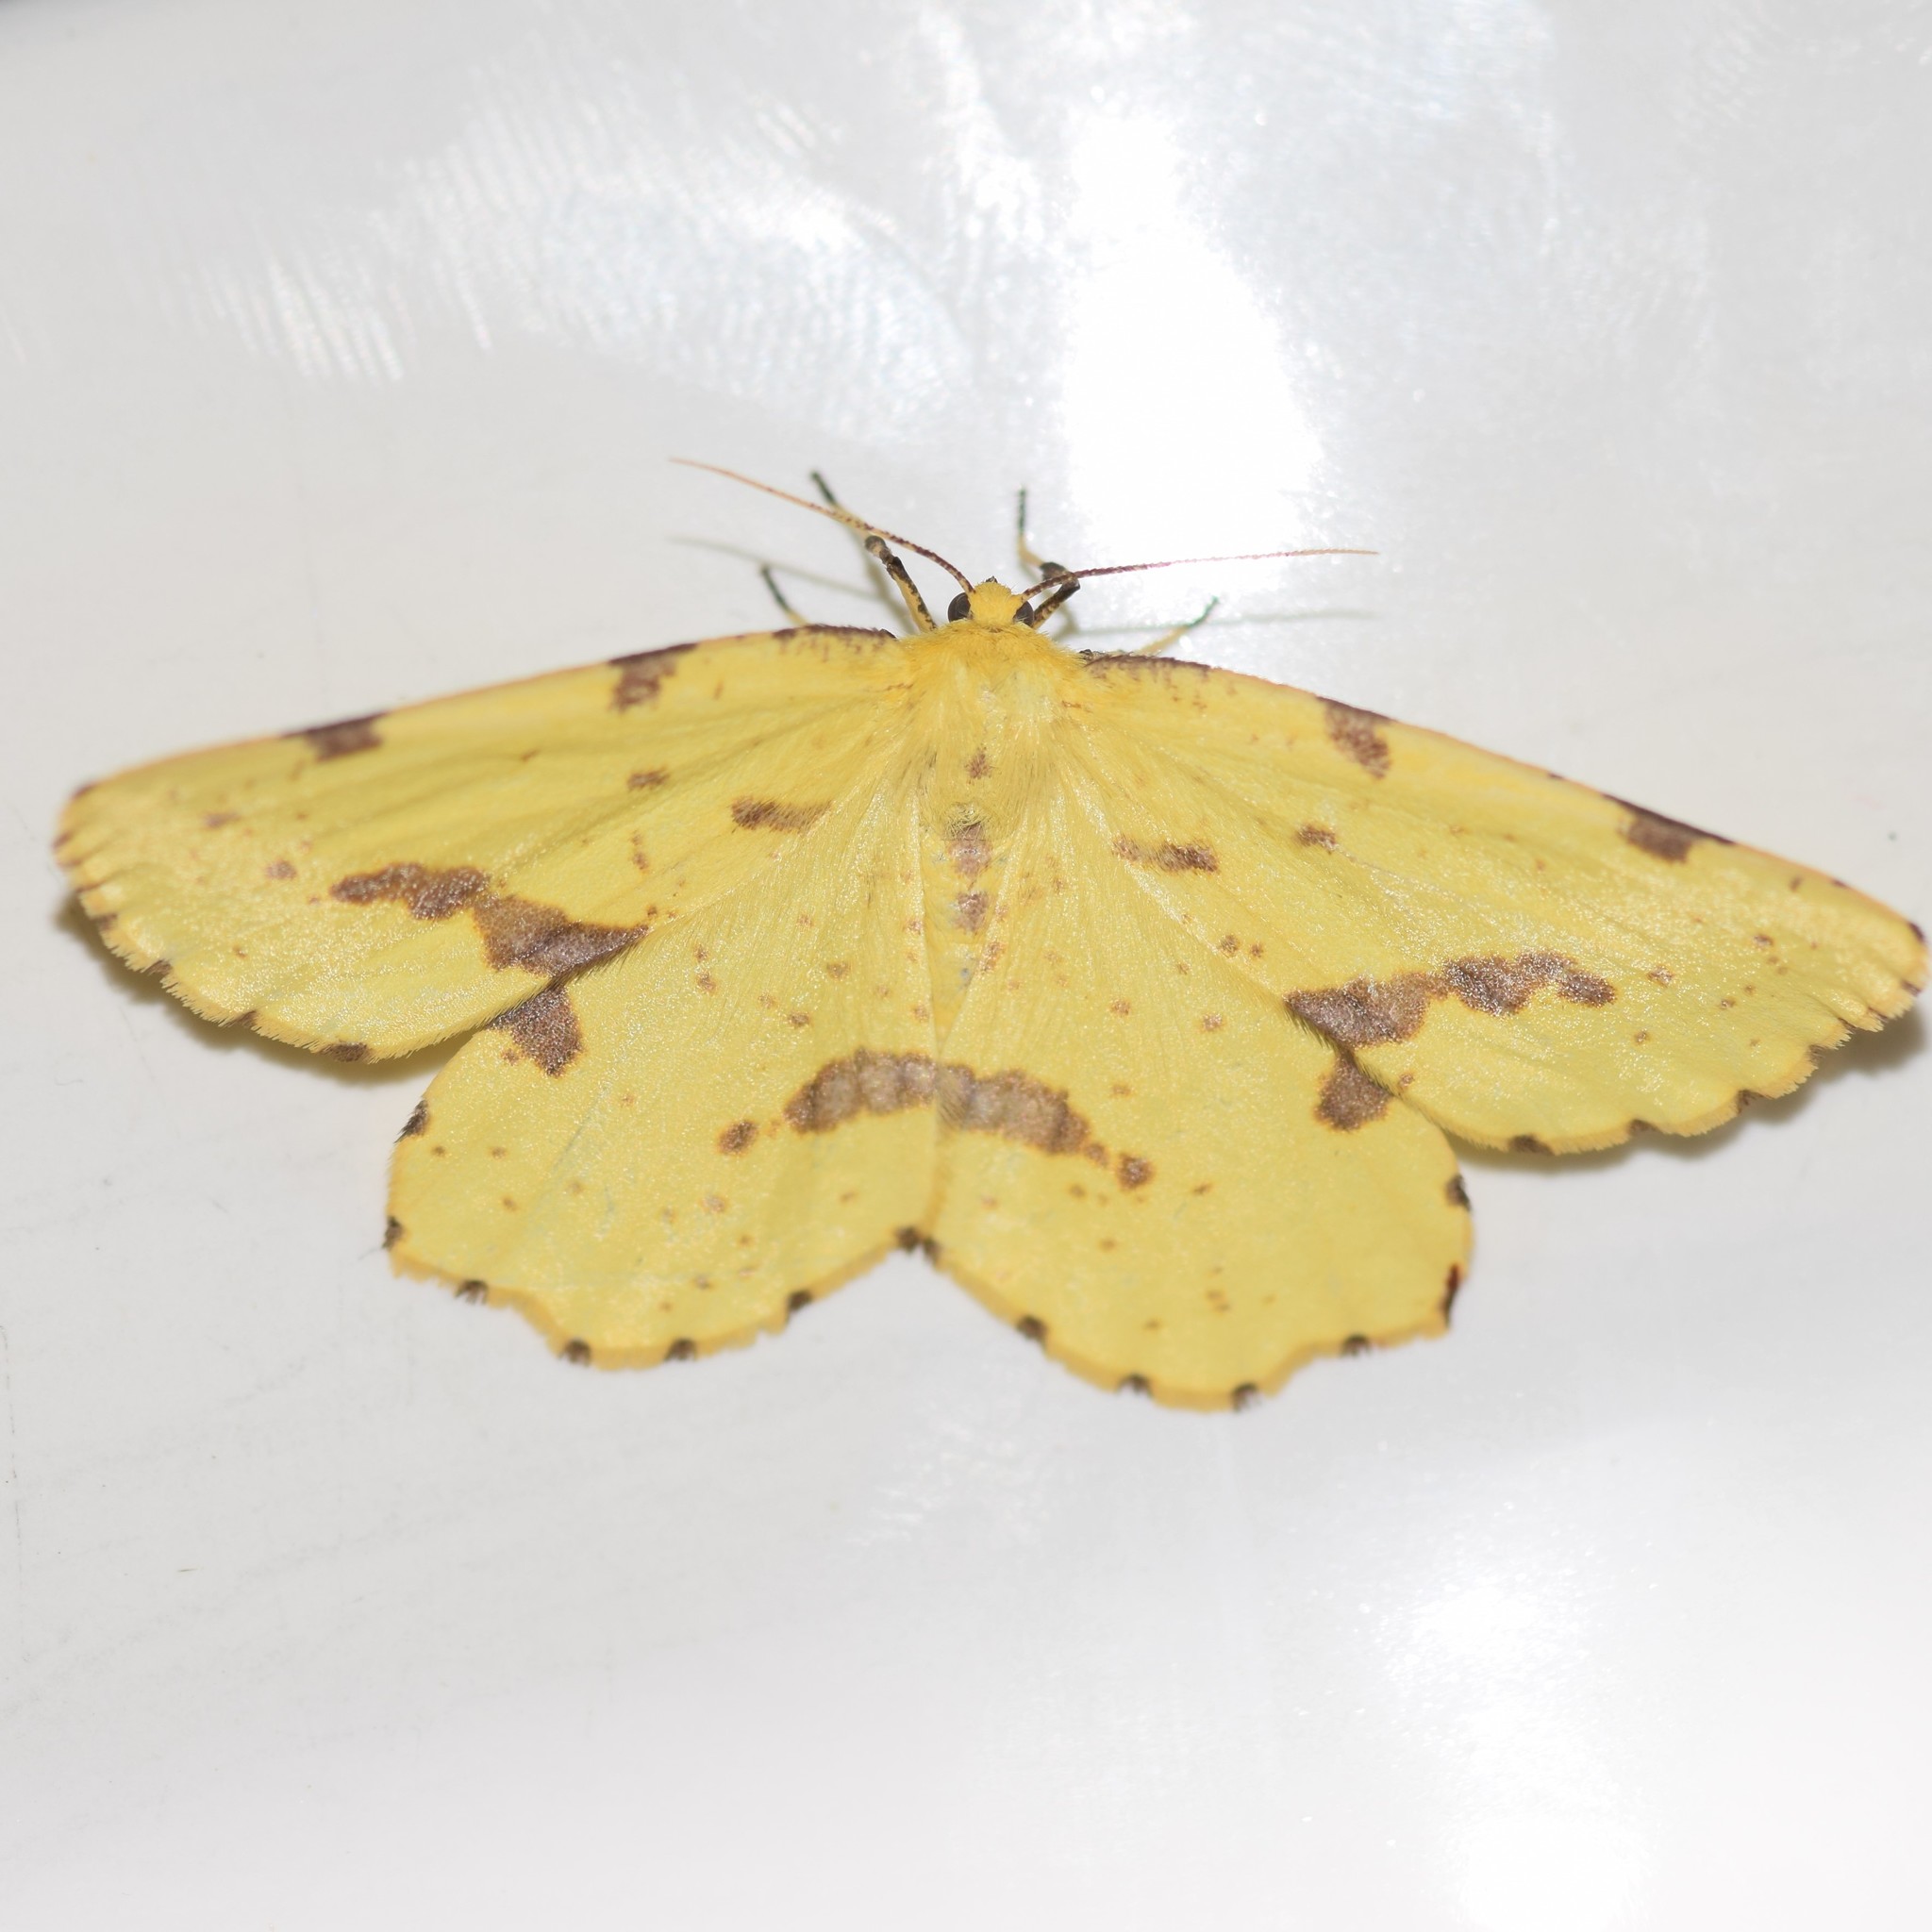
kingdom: Animalia
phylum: Arthropoda
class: Insecta
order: Lepidoptera
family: Geometridae
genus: Xanthotype
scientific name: Xanthotype
